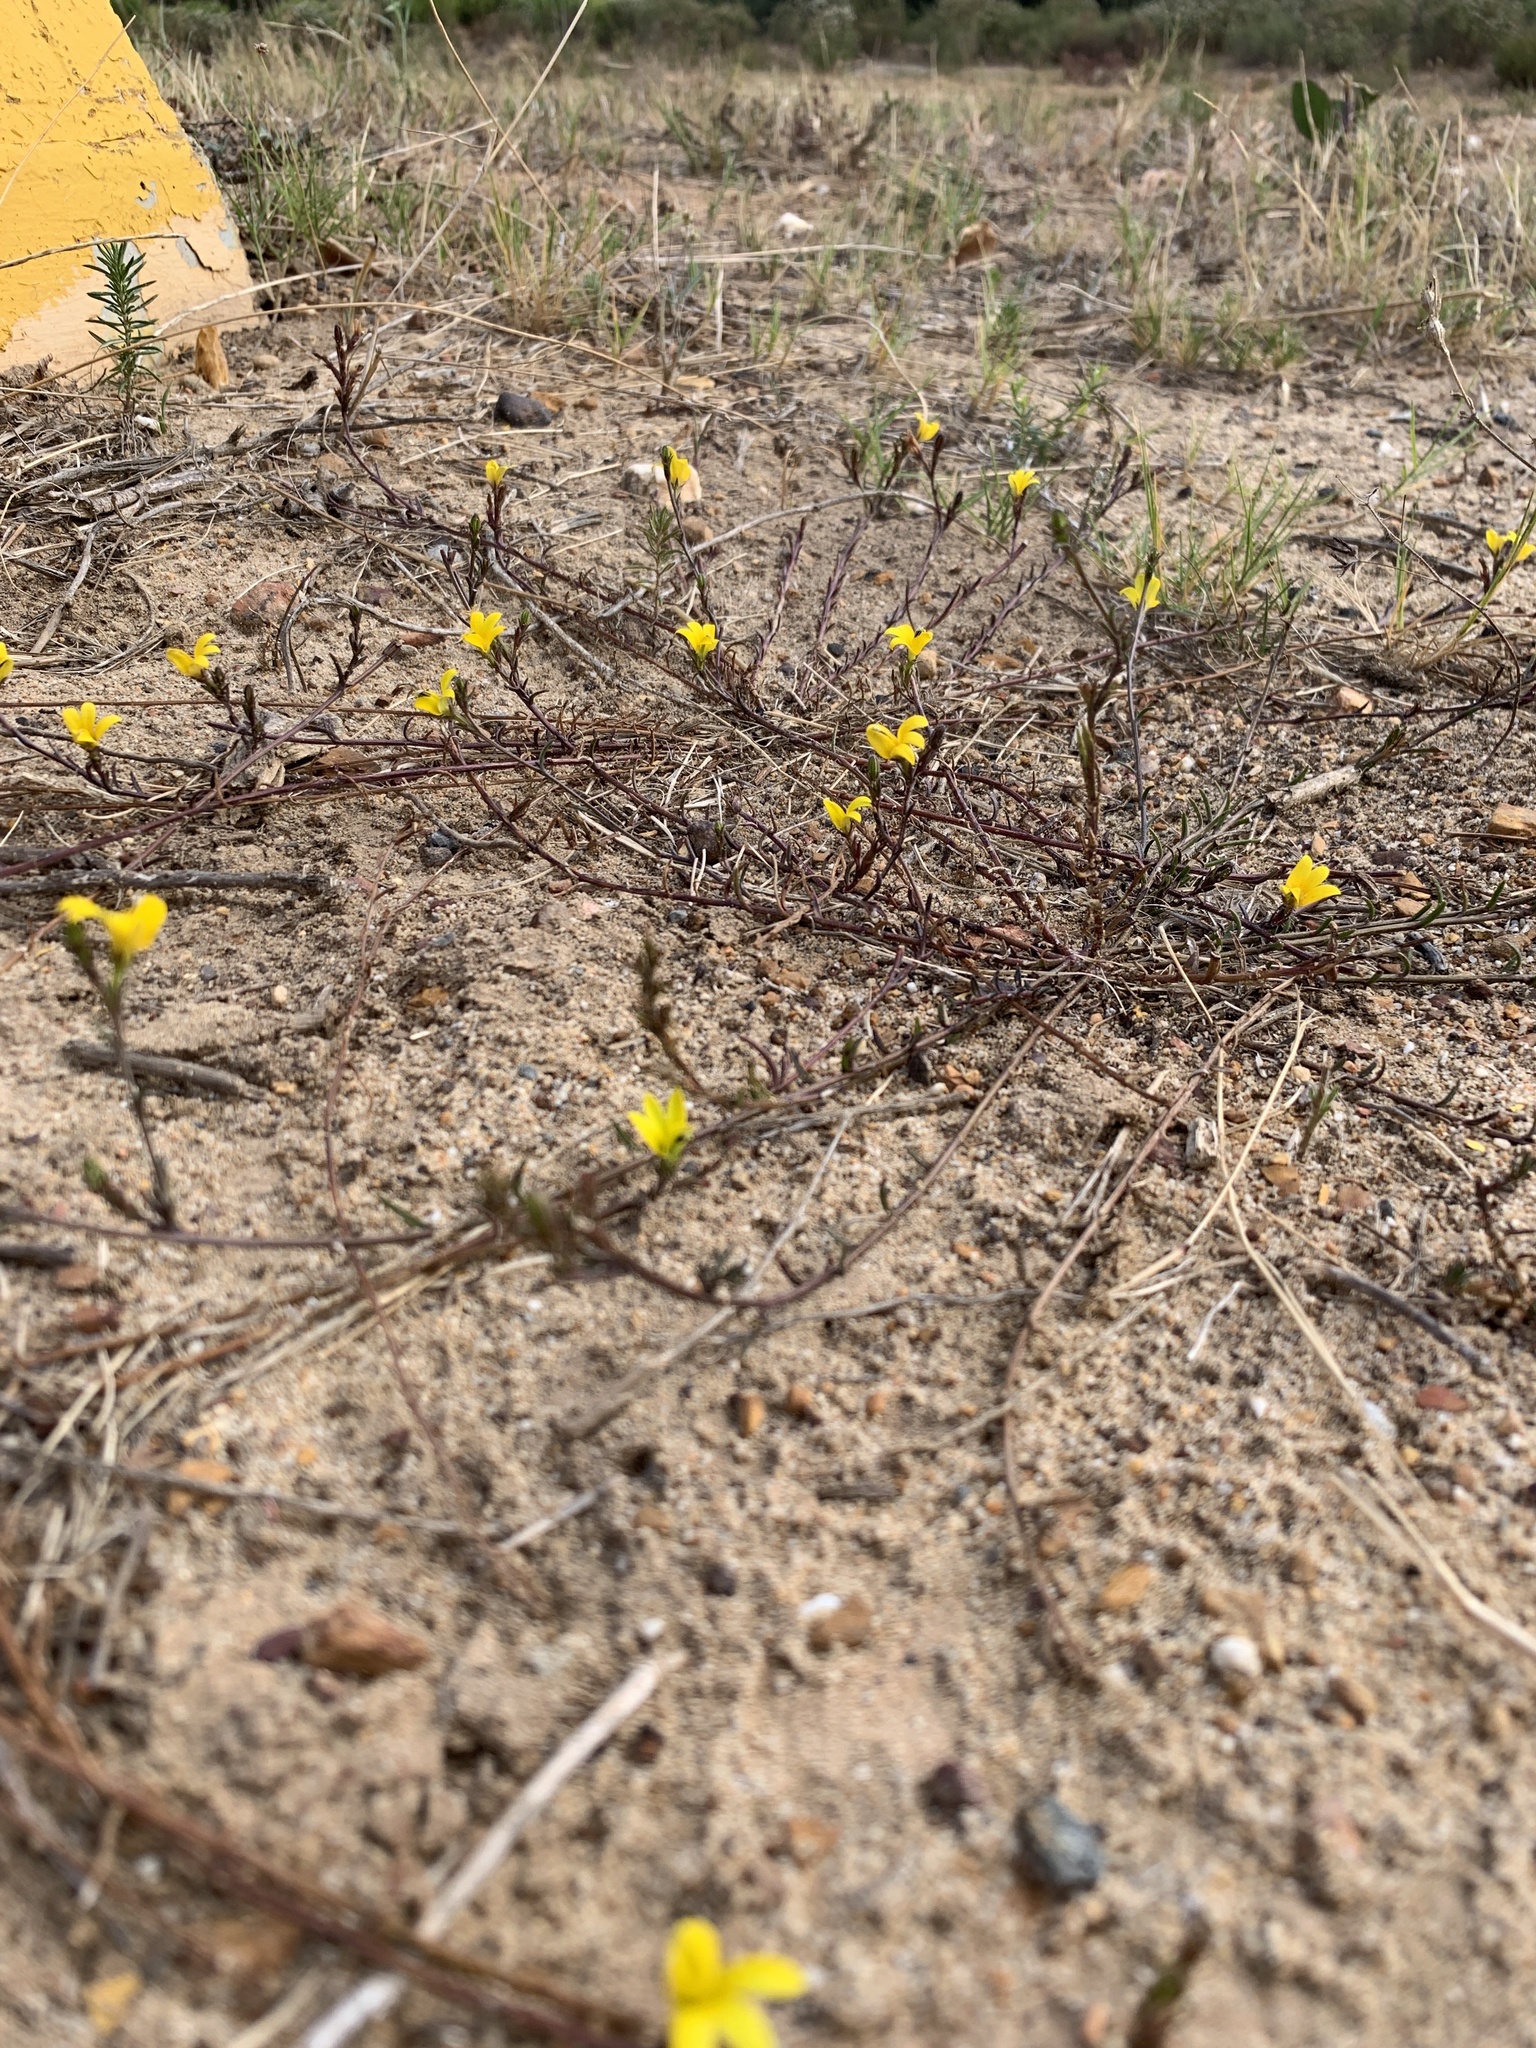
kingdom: Plantae
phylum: Tracheophyta
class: Magnoliopsida
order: Asterales
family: Campanulaceae
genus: Monopsis
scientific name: Monopsis lutea
